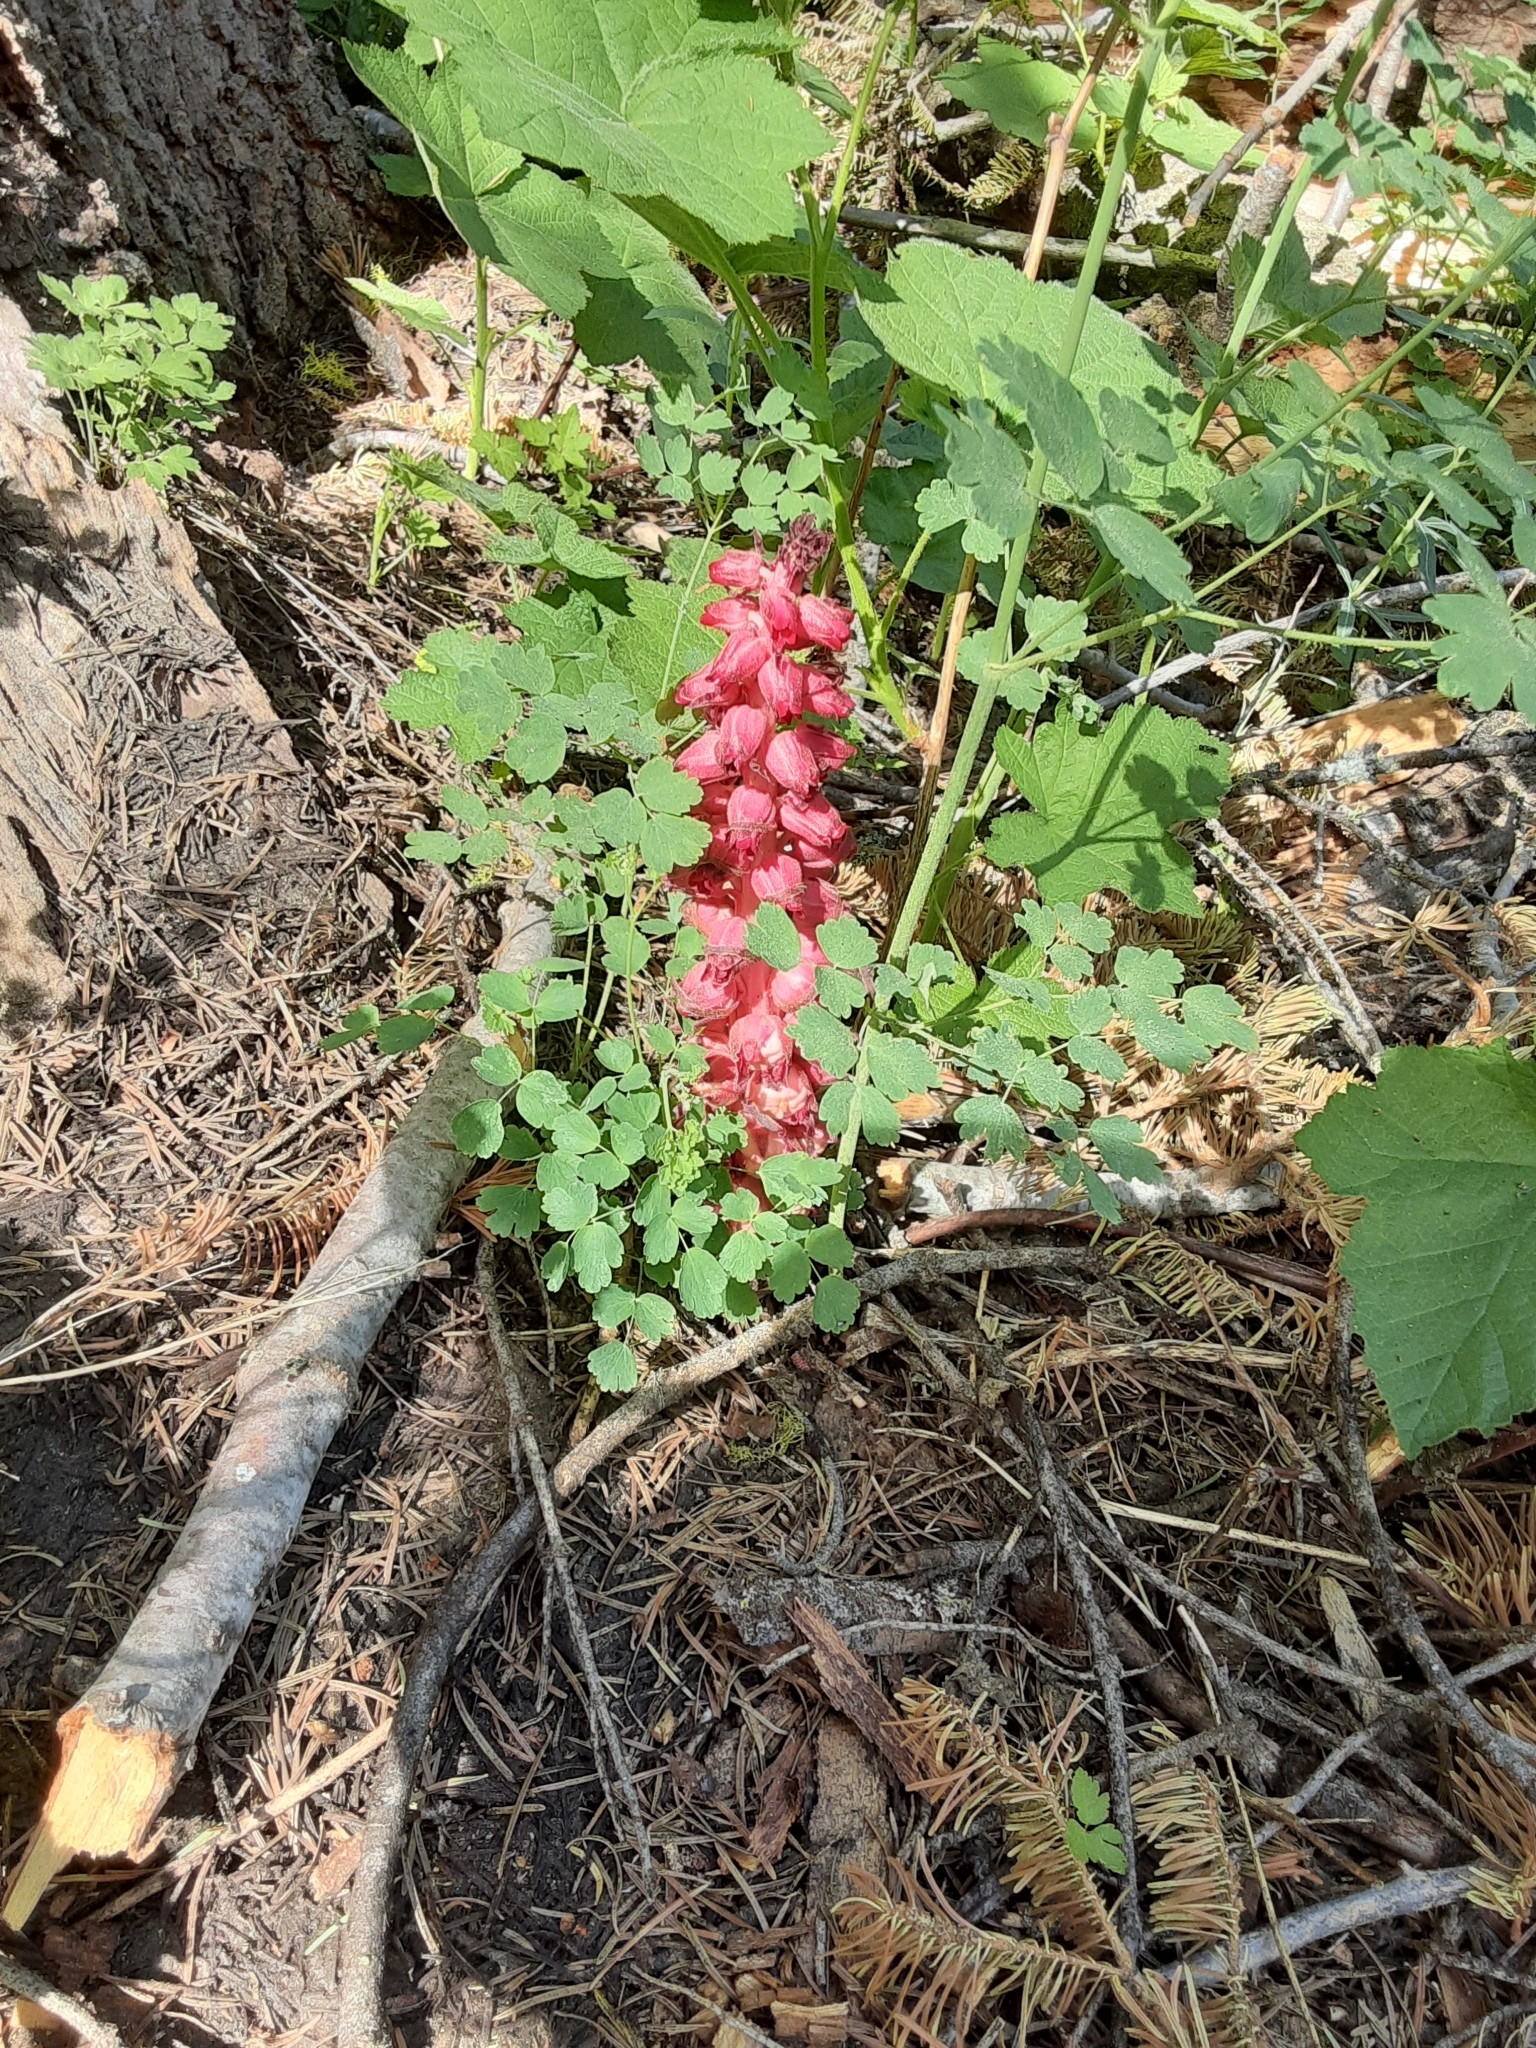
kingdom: Plantae
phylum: Tracheophyta
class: Magnoliopsida
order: Ericales
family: Ericaceae
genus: Sarcodes
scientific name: Sarcodes sanguinea
